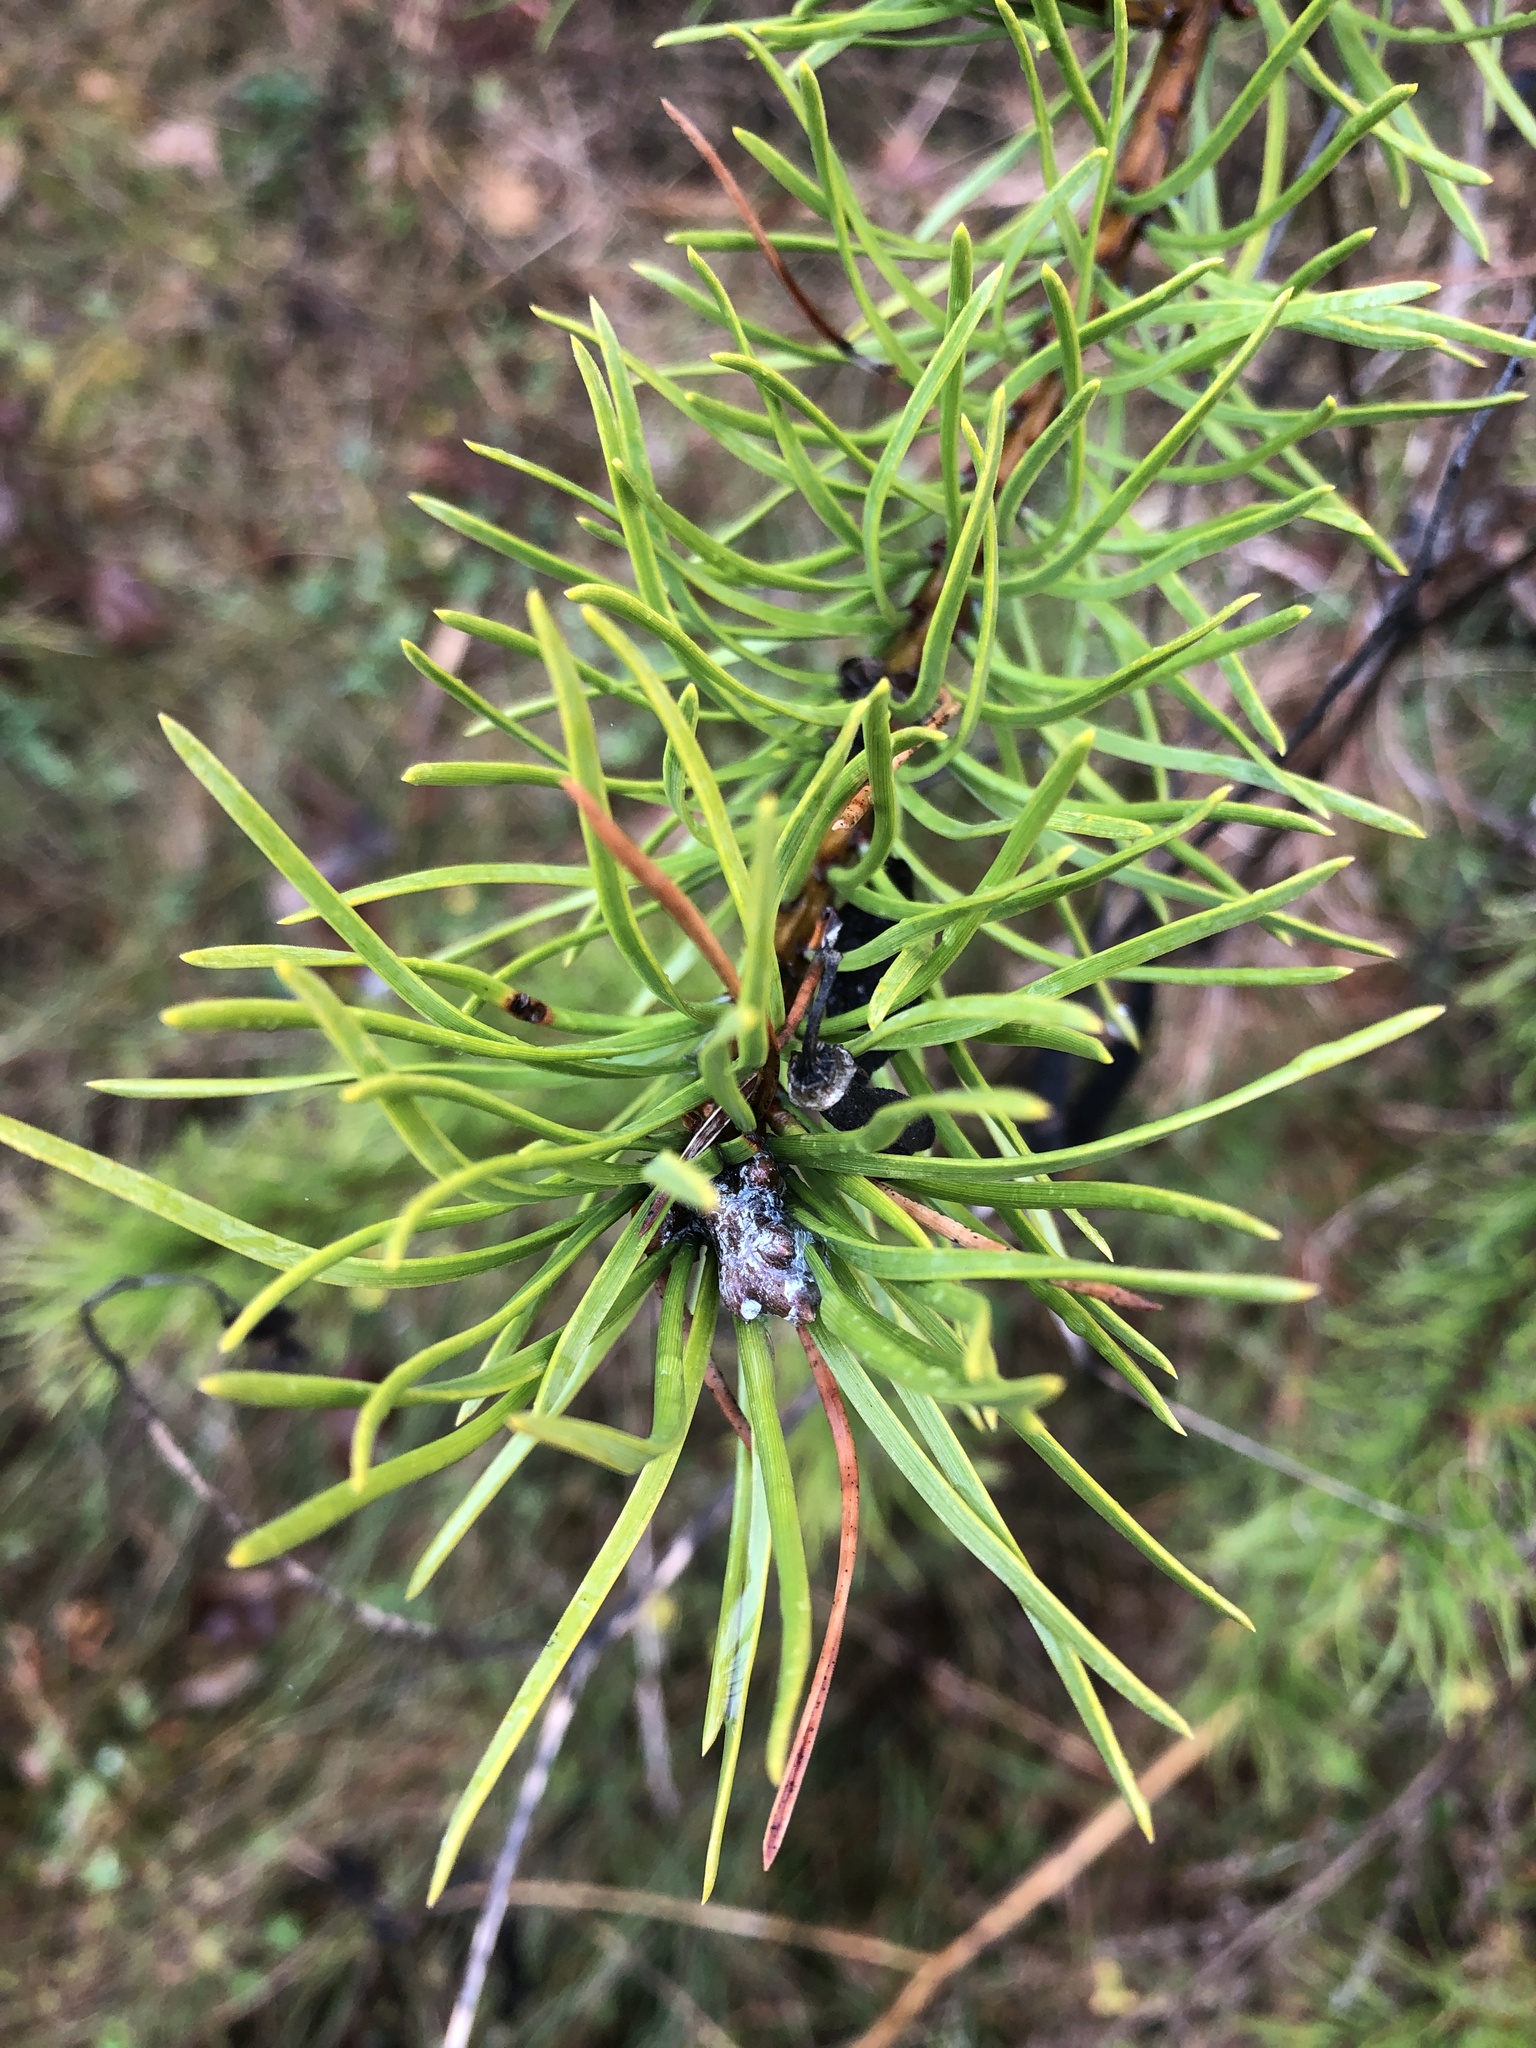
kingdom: Plantae
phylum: Tracheophyta
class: Pinopsida
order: Pinales
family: Pinaceae
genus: Pinus
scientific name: Pinus banksiana
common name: Jack pine
